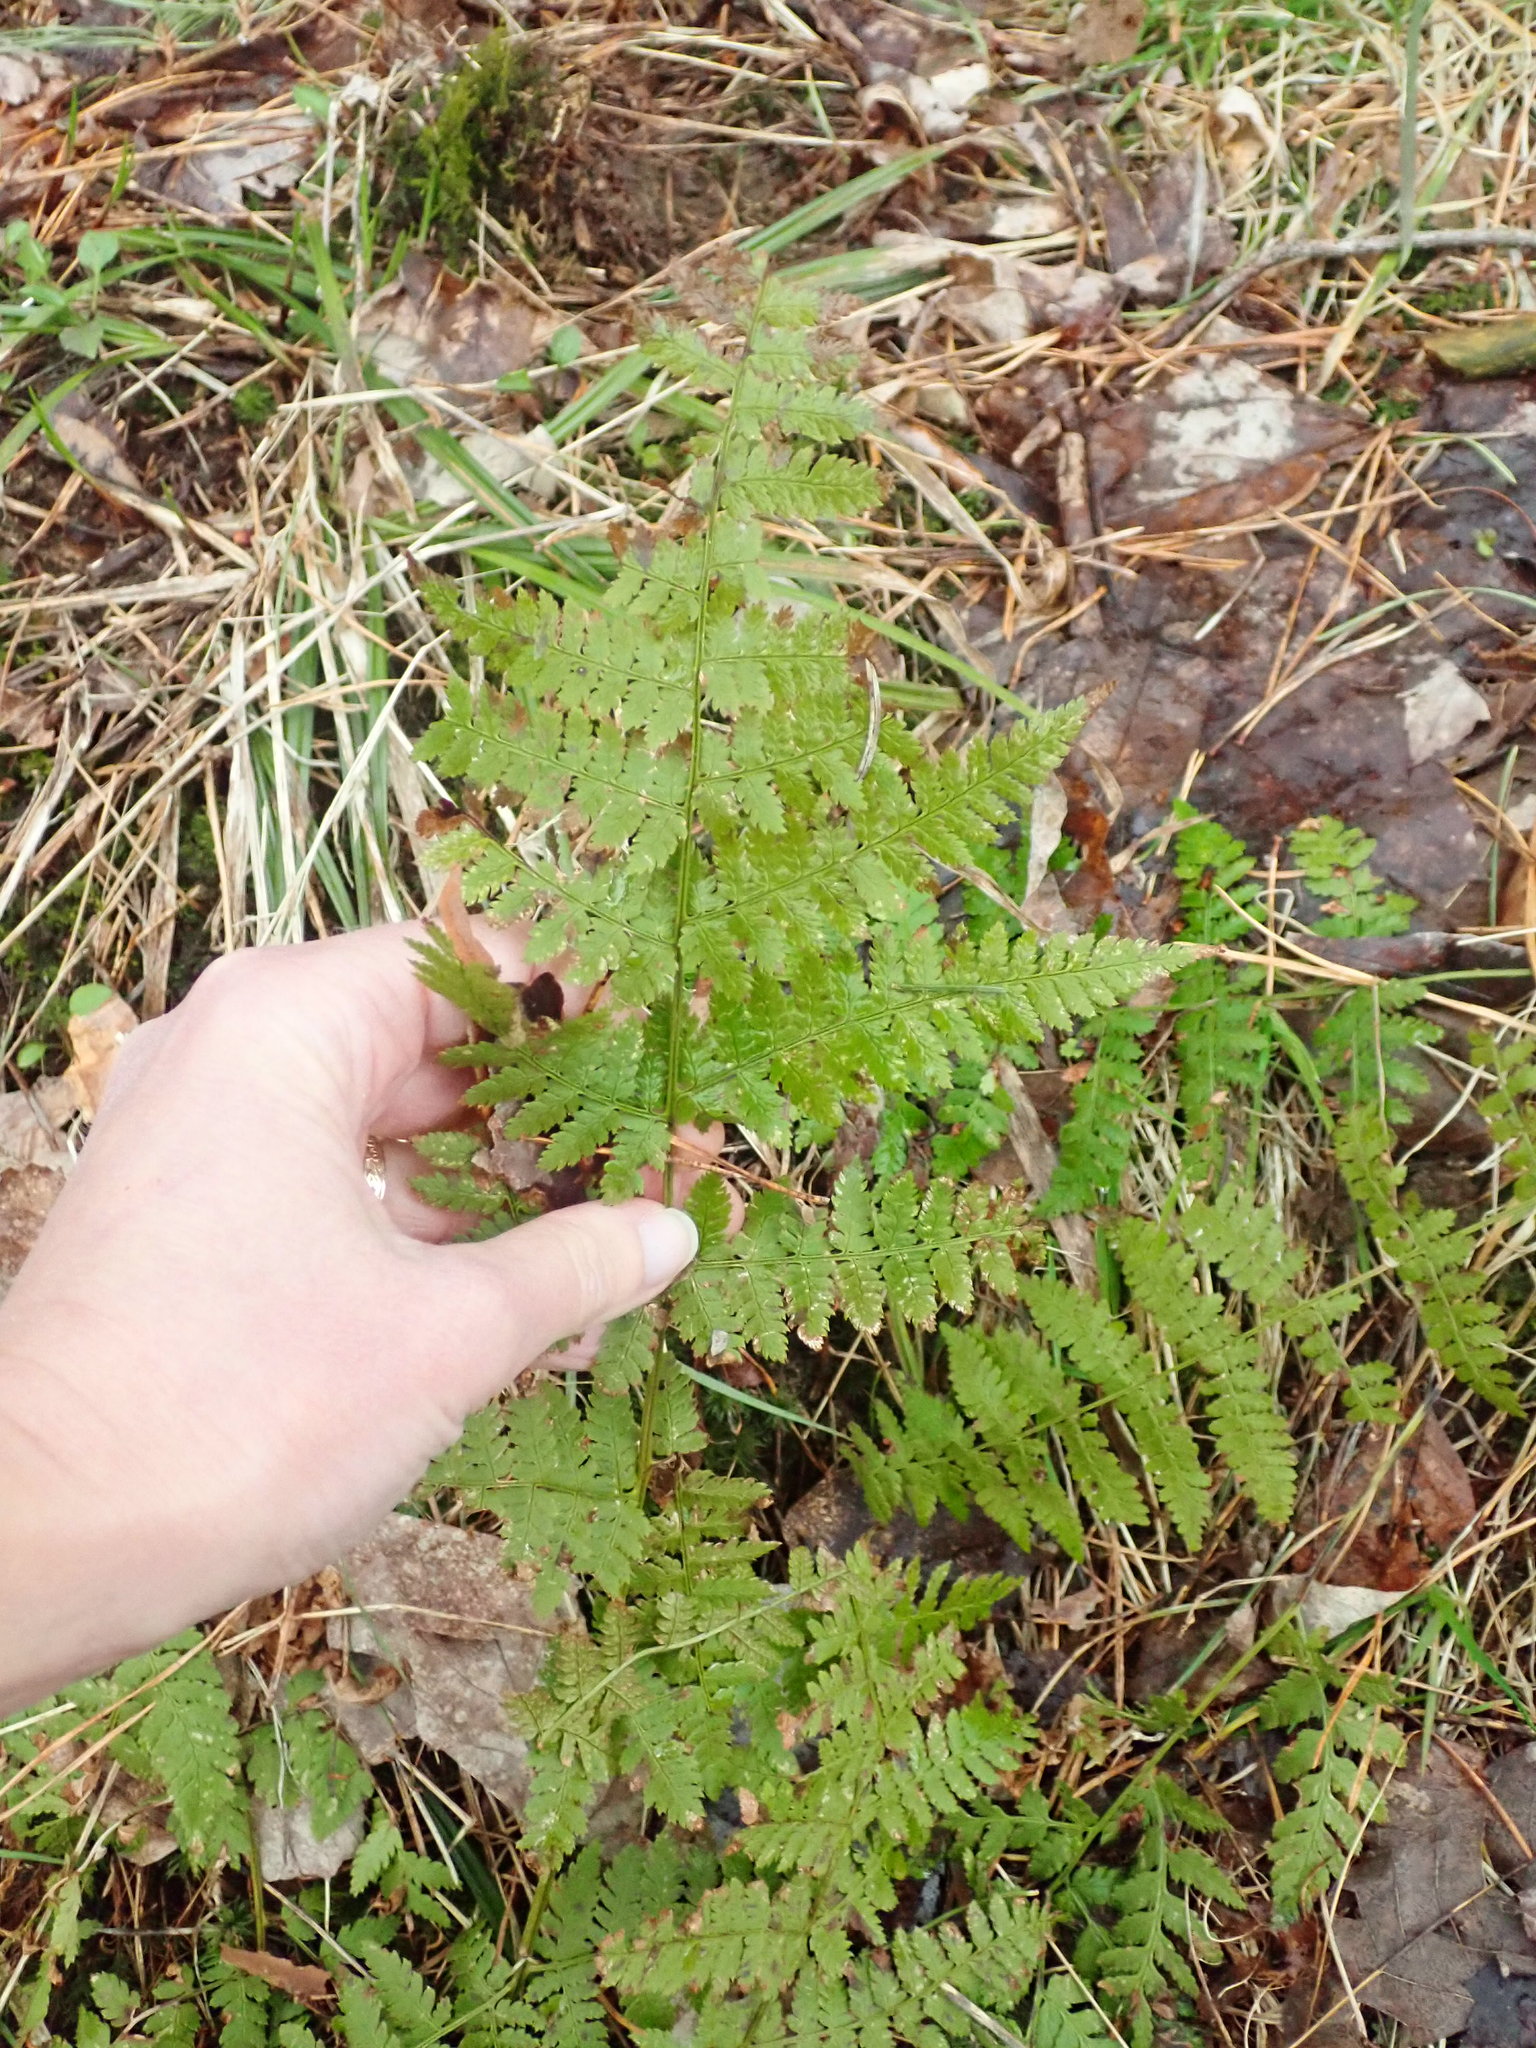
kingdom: Plantae
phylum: Tracheophyta
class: Polypodiopsida
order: Polypodiales
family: Dryopteridaceae
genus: Dryopteris
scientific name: Dryopteris intermedia
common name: Evergreen wood fern
